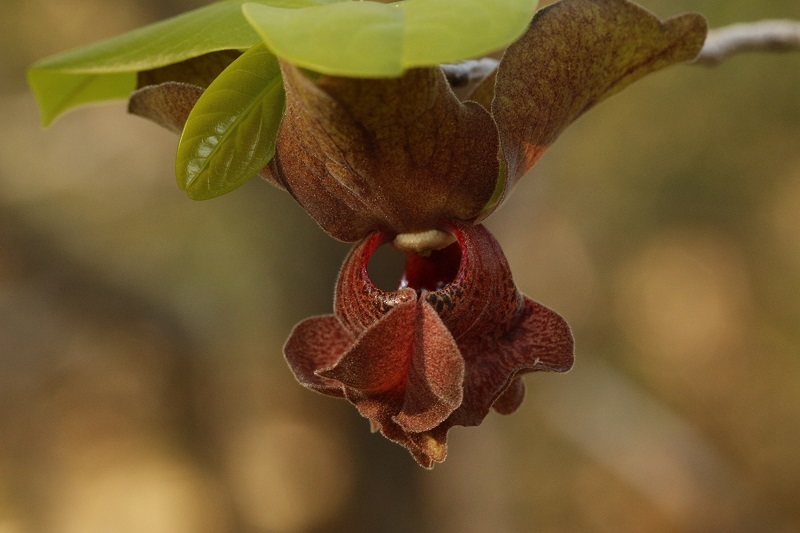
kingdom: Plantae
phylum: Tracheophyta
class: Magnoliopsida
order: Magnoliales
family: Annonaceae
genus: Monodora
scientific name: Monodora junodii
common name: Green-apple
